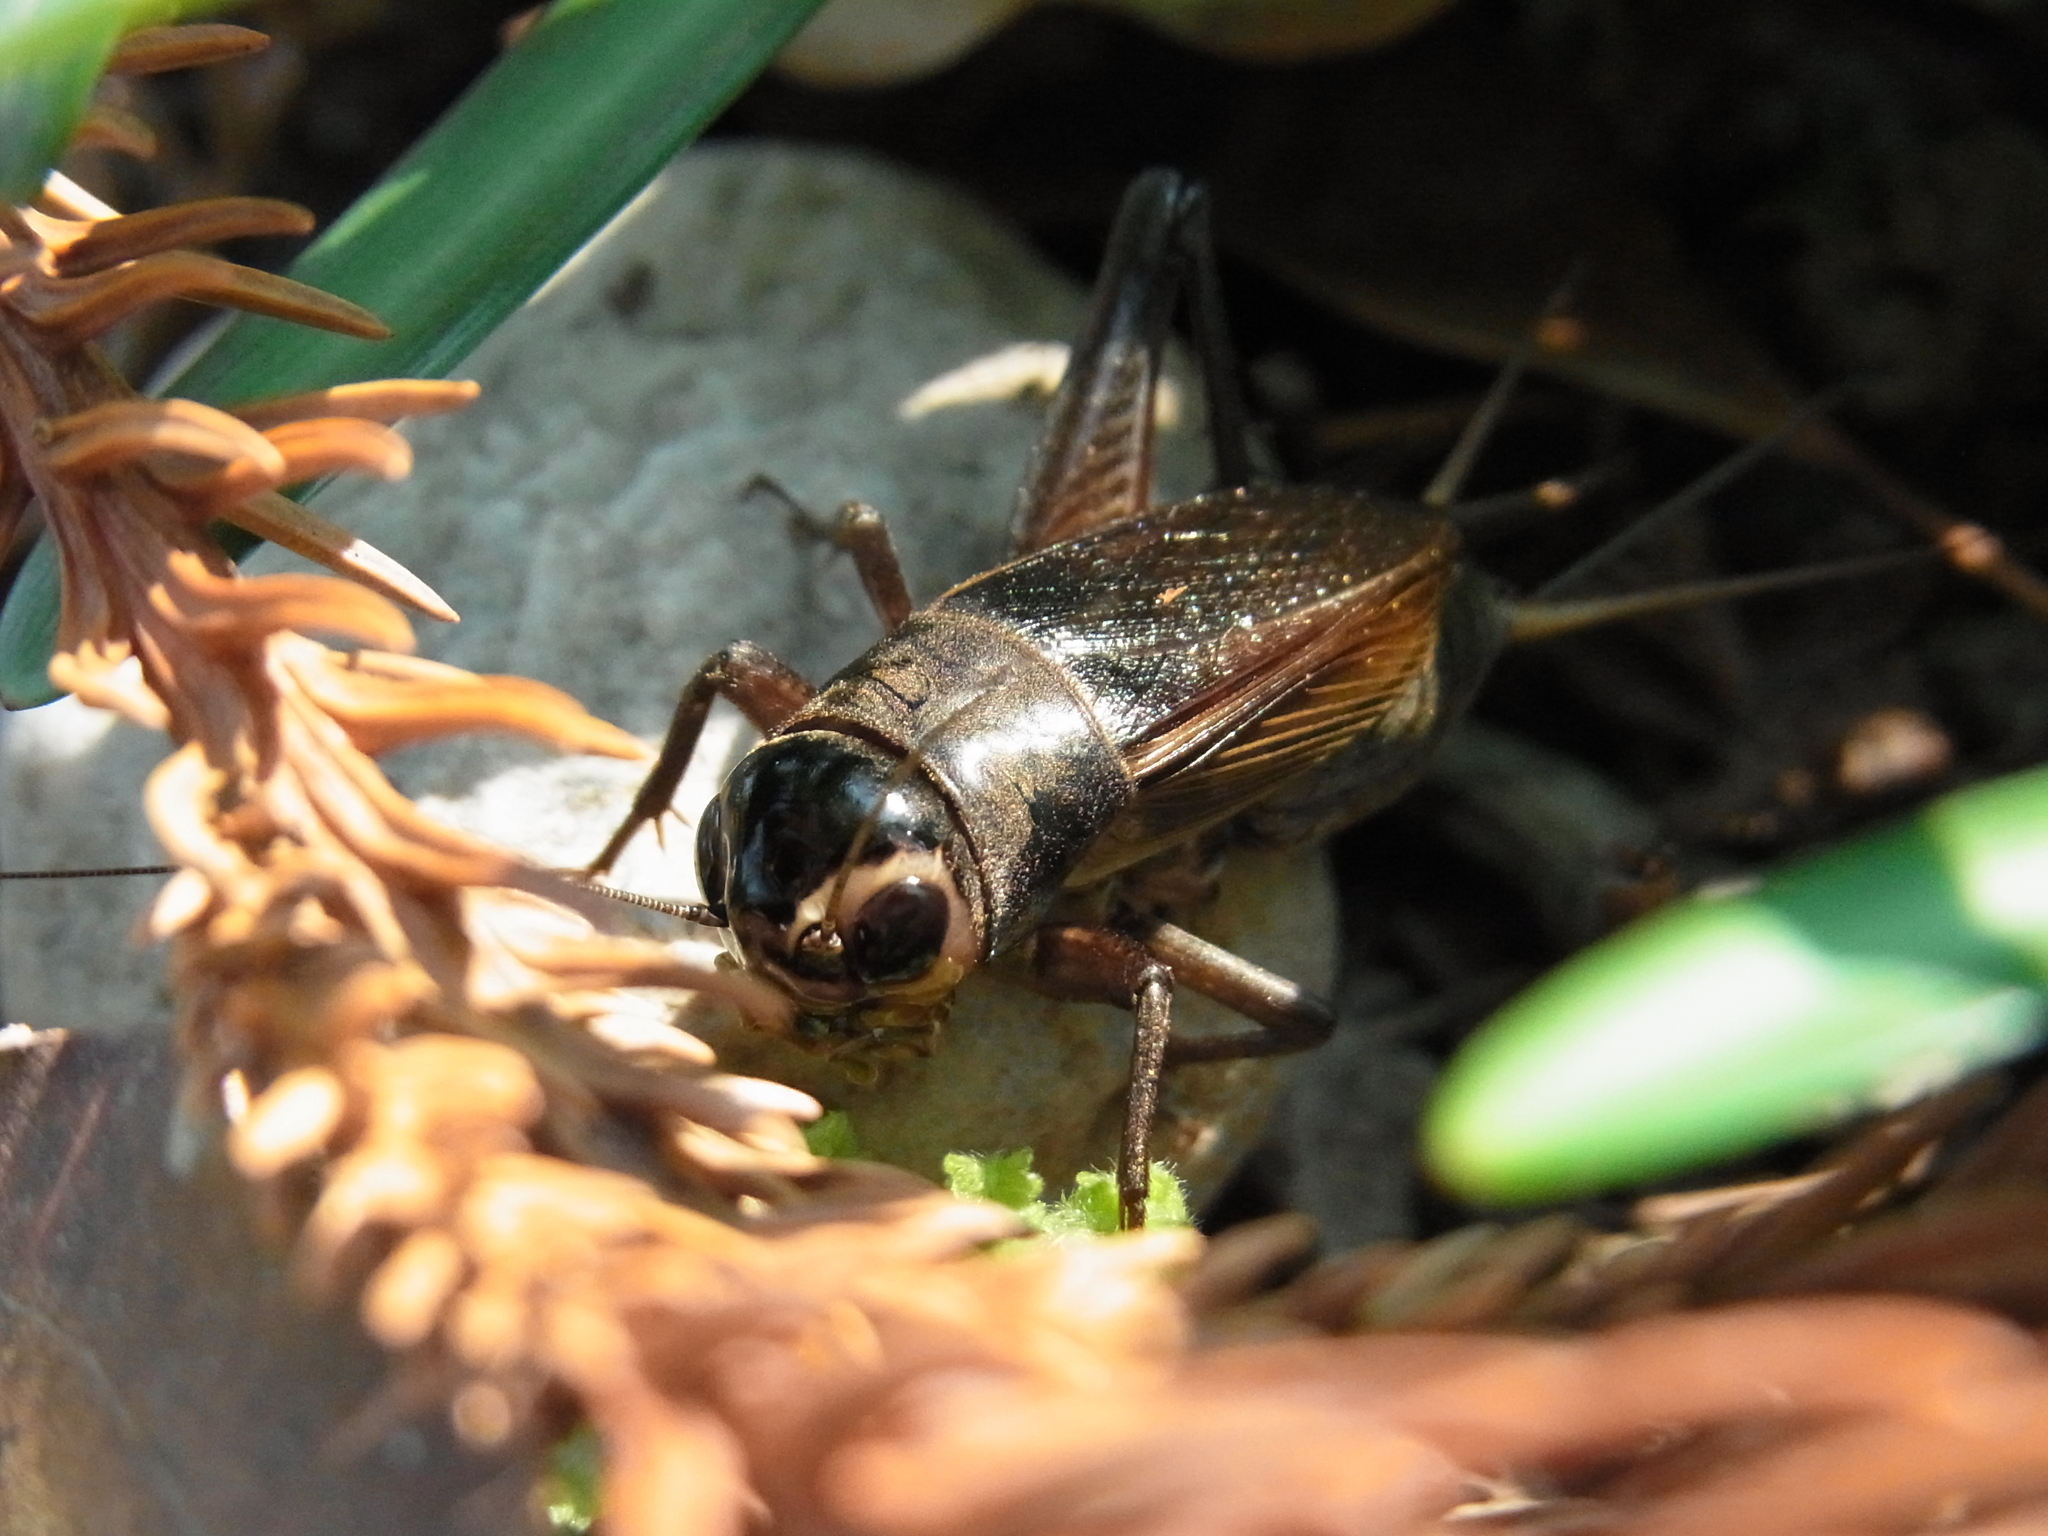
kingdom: Animalia
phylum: Arthropoda
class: Insecta
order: Orthoptera
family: Gryllidae
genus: Teleogryllus
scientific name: Teleogryllus emma
